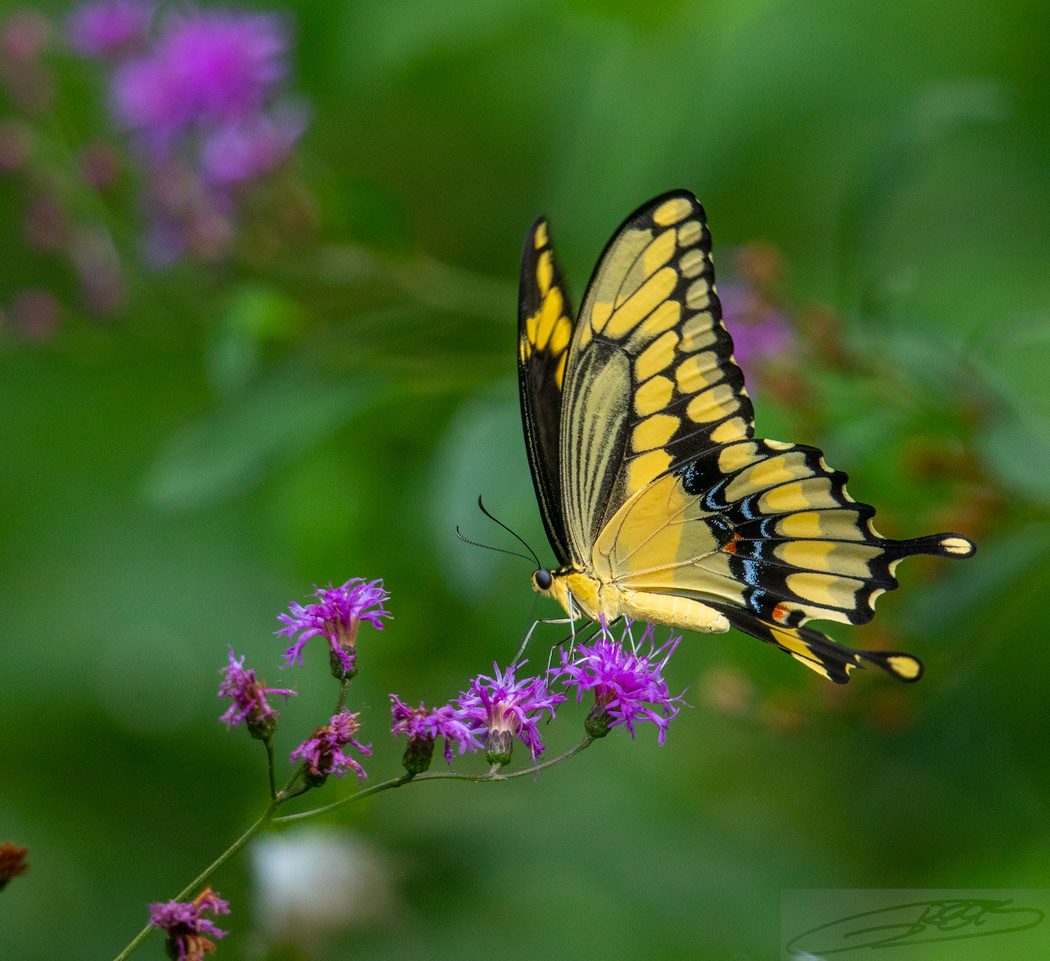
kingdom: Animalia
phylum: Arthropoda
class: Insecta
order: Lepidoptera
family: Papilionidae
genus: Papilio
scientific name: Papilio cresphontes
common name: Giant swallowtail
